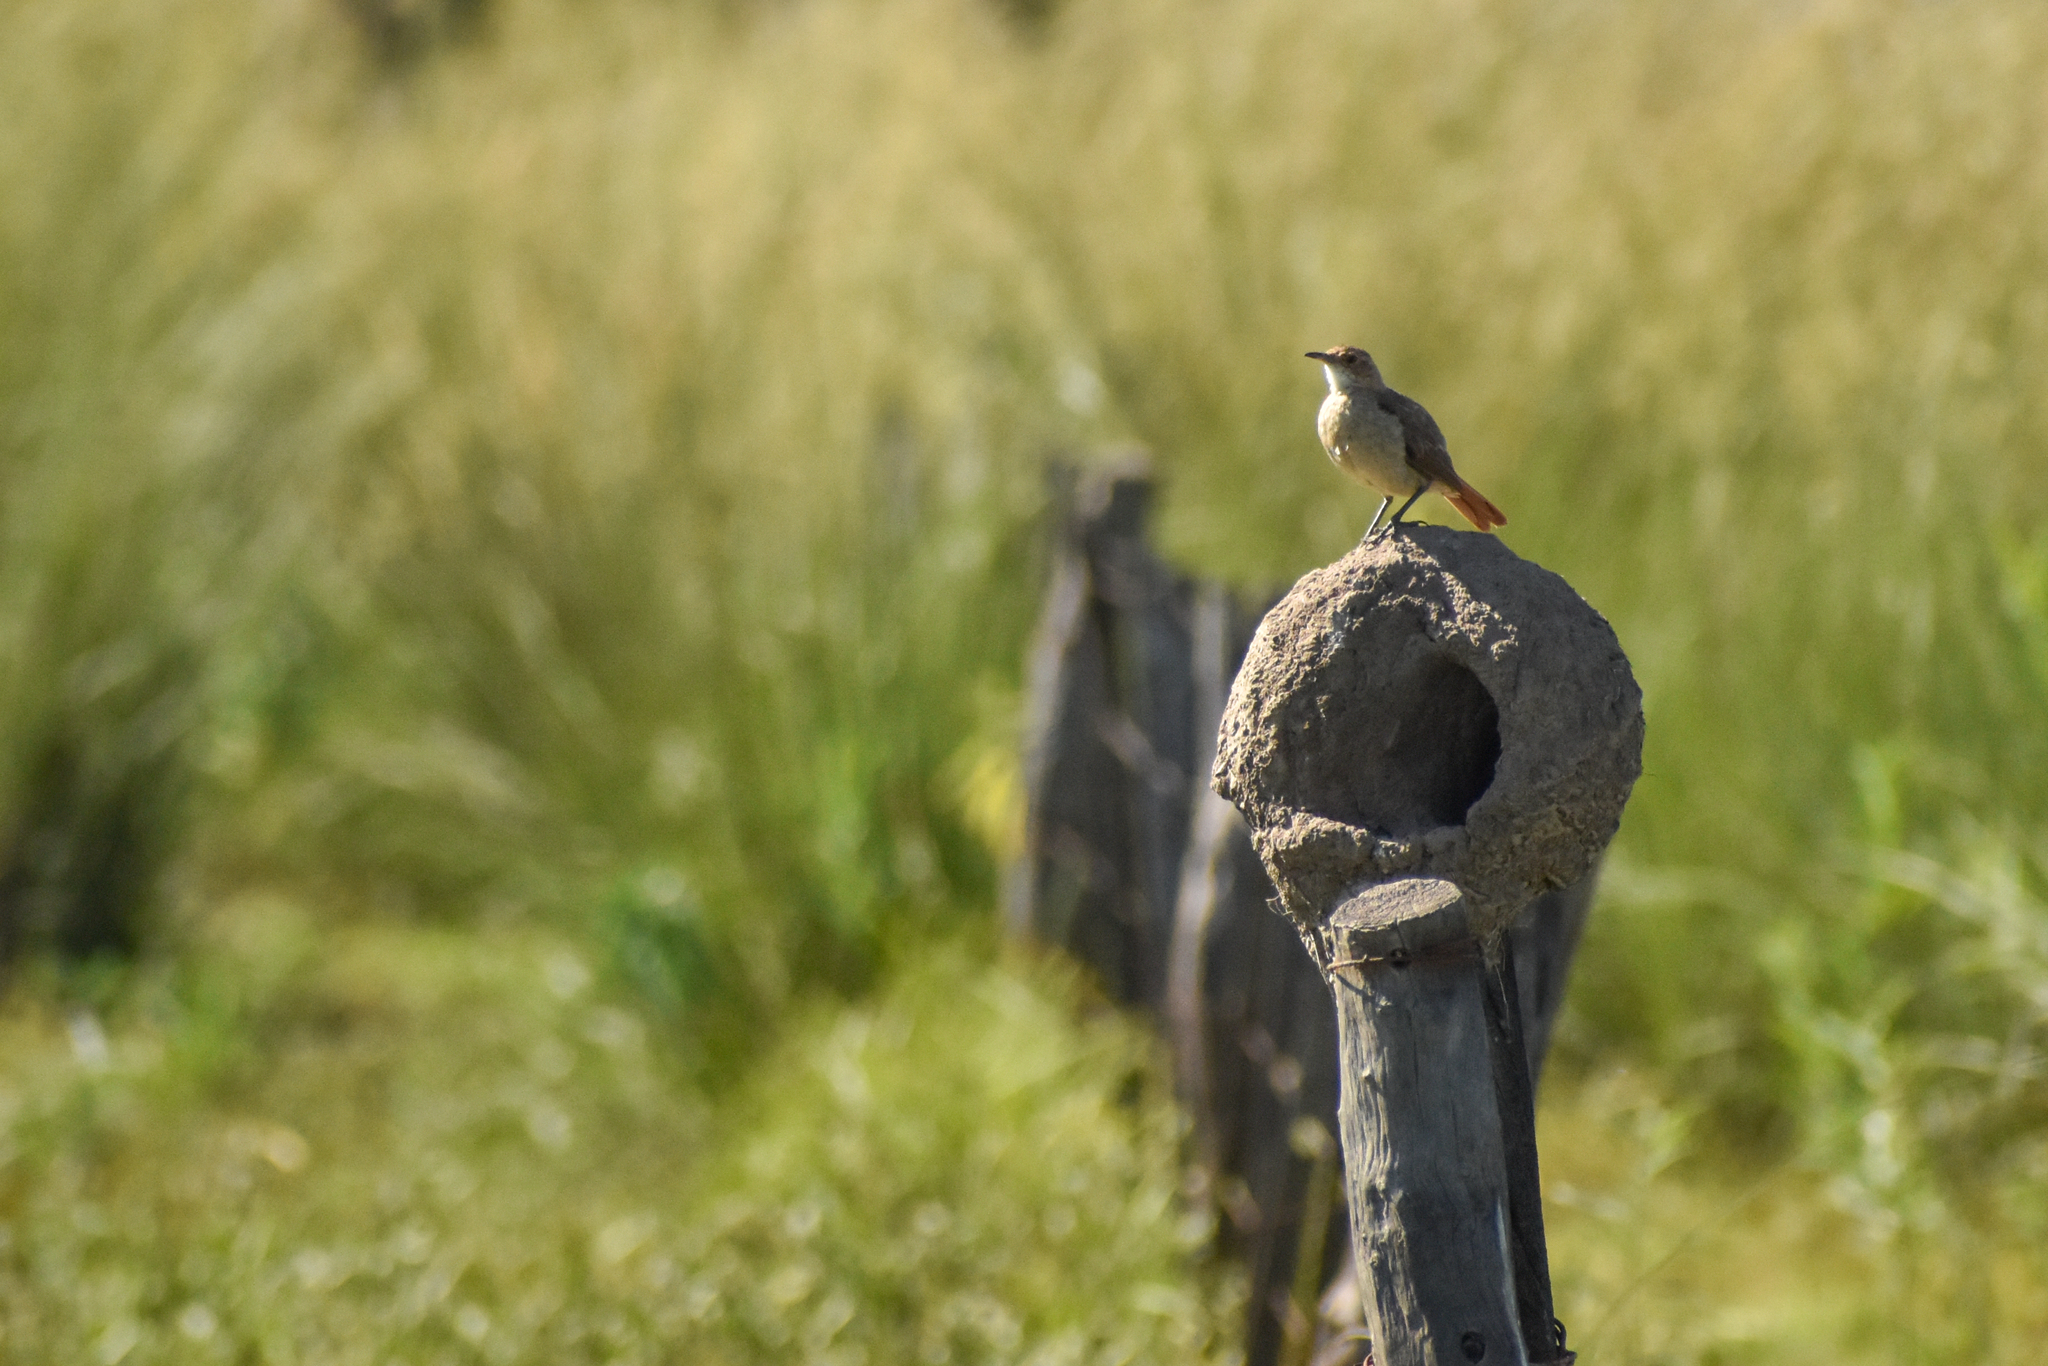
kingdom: Animalia
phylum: Chordata
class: Aves
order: Passeriformes
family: Furnariidae
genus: Furnarius
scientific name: Furnarius rufus
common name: Rufous hornero
